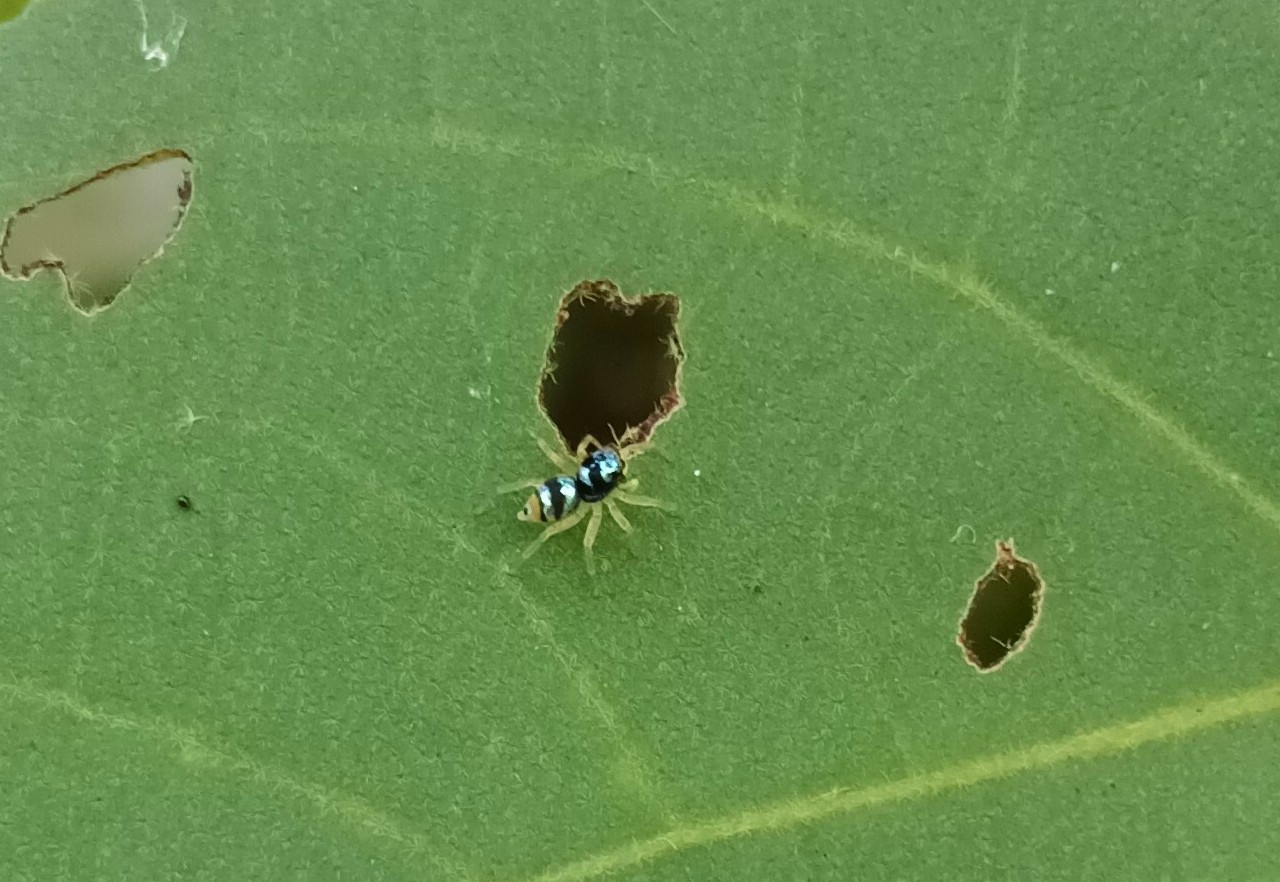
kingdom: Animalia
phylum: Arthropoda
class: Arachnida
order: Araneae
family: Salticidae
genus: Phintella
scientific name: Phintella vittata
